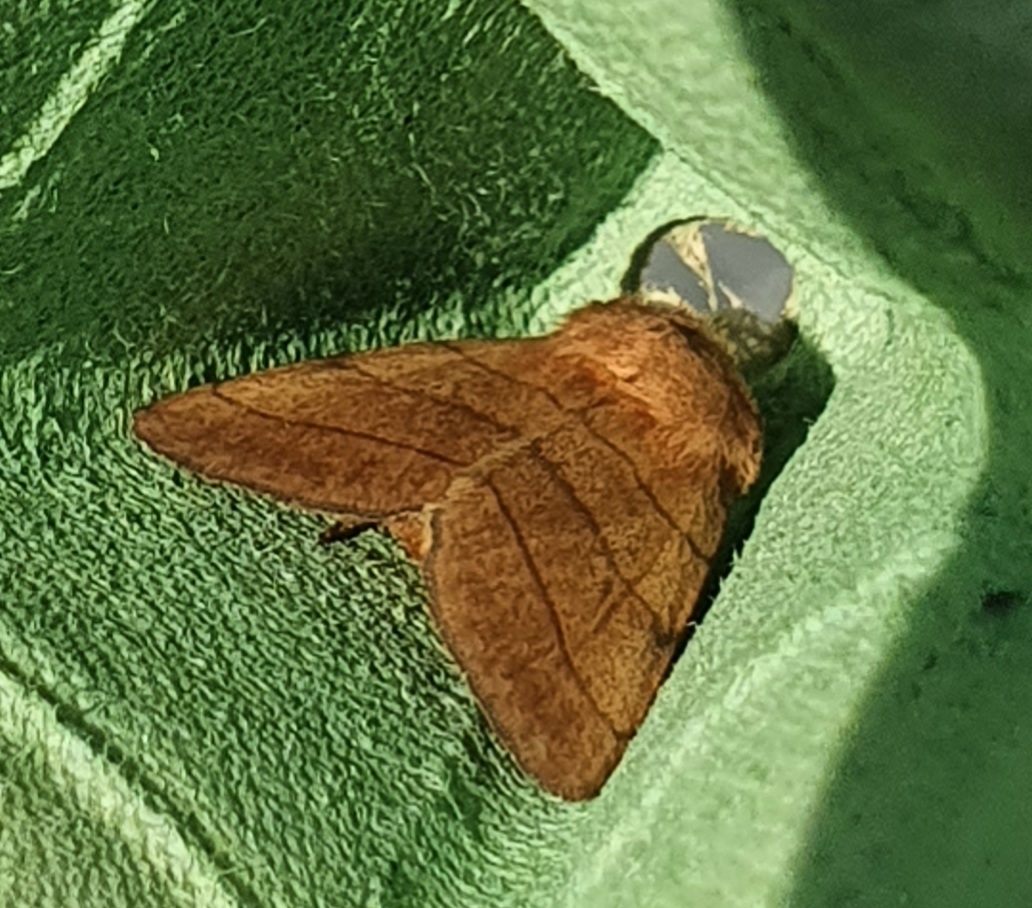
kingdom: Animalia
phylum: Arthropoda
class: Insecta
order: Lepidoptera
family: Noctuidae
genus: Charanyca
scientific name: Charanyca trigrammica
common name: Treble lines
